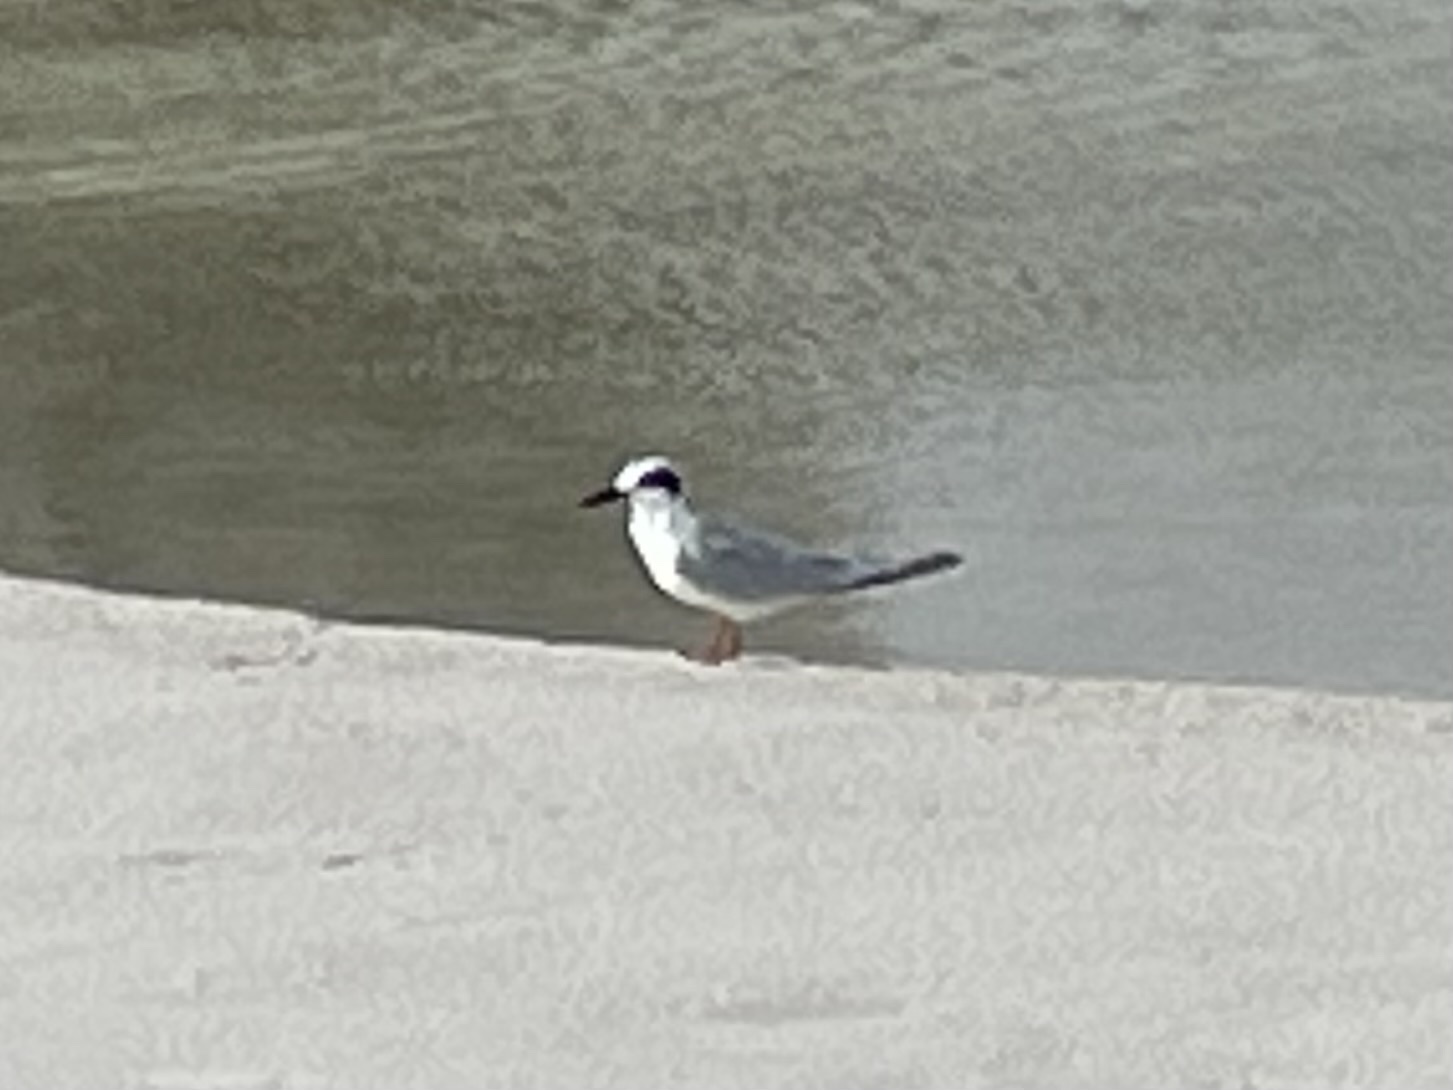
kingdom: Animalia
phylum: Chordata
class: Aves
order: Charadriiformes
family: Laridae
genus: Sterna
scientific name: Sterna forsteri
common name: Forster's tern
